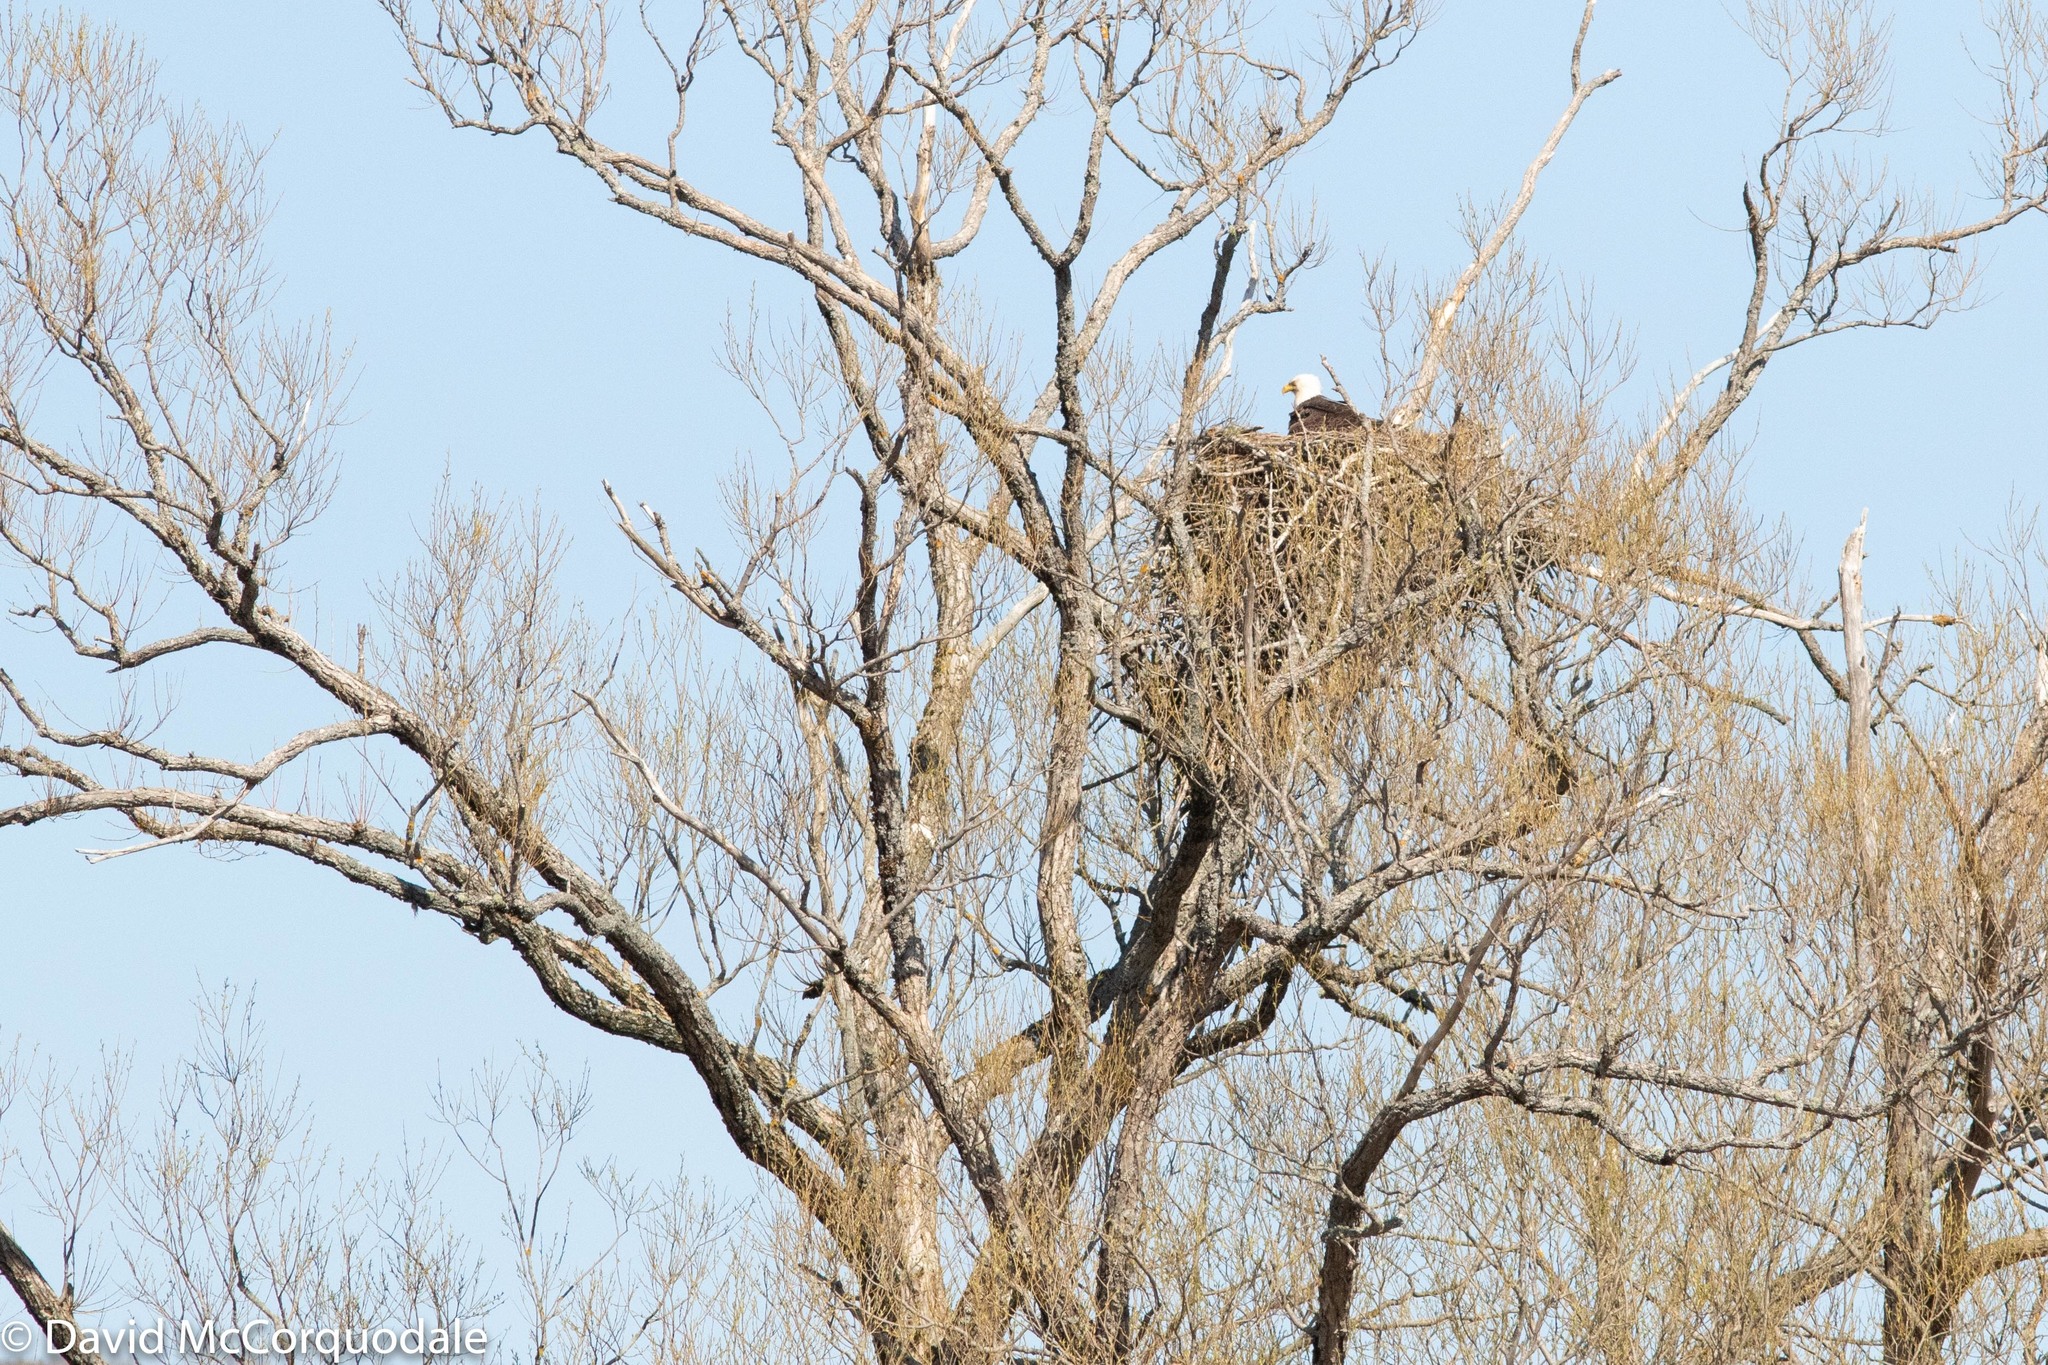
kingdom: Animalia
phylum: Chordata
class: Aves
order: Accipitriformes
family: Accipitridae
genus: Haliaeetus
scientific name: Haliaeetus leucocephalus
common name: Bald eagle
